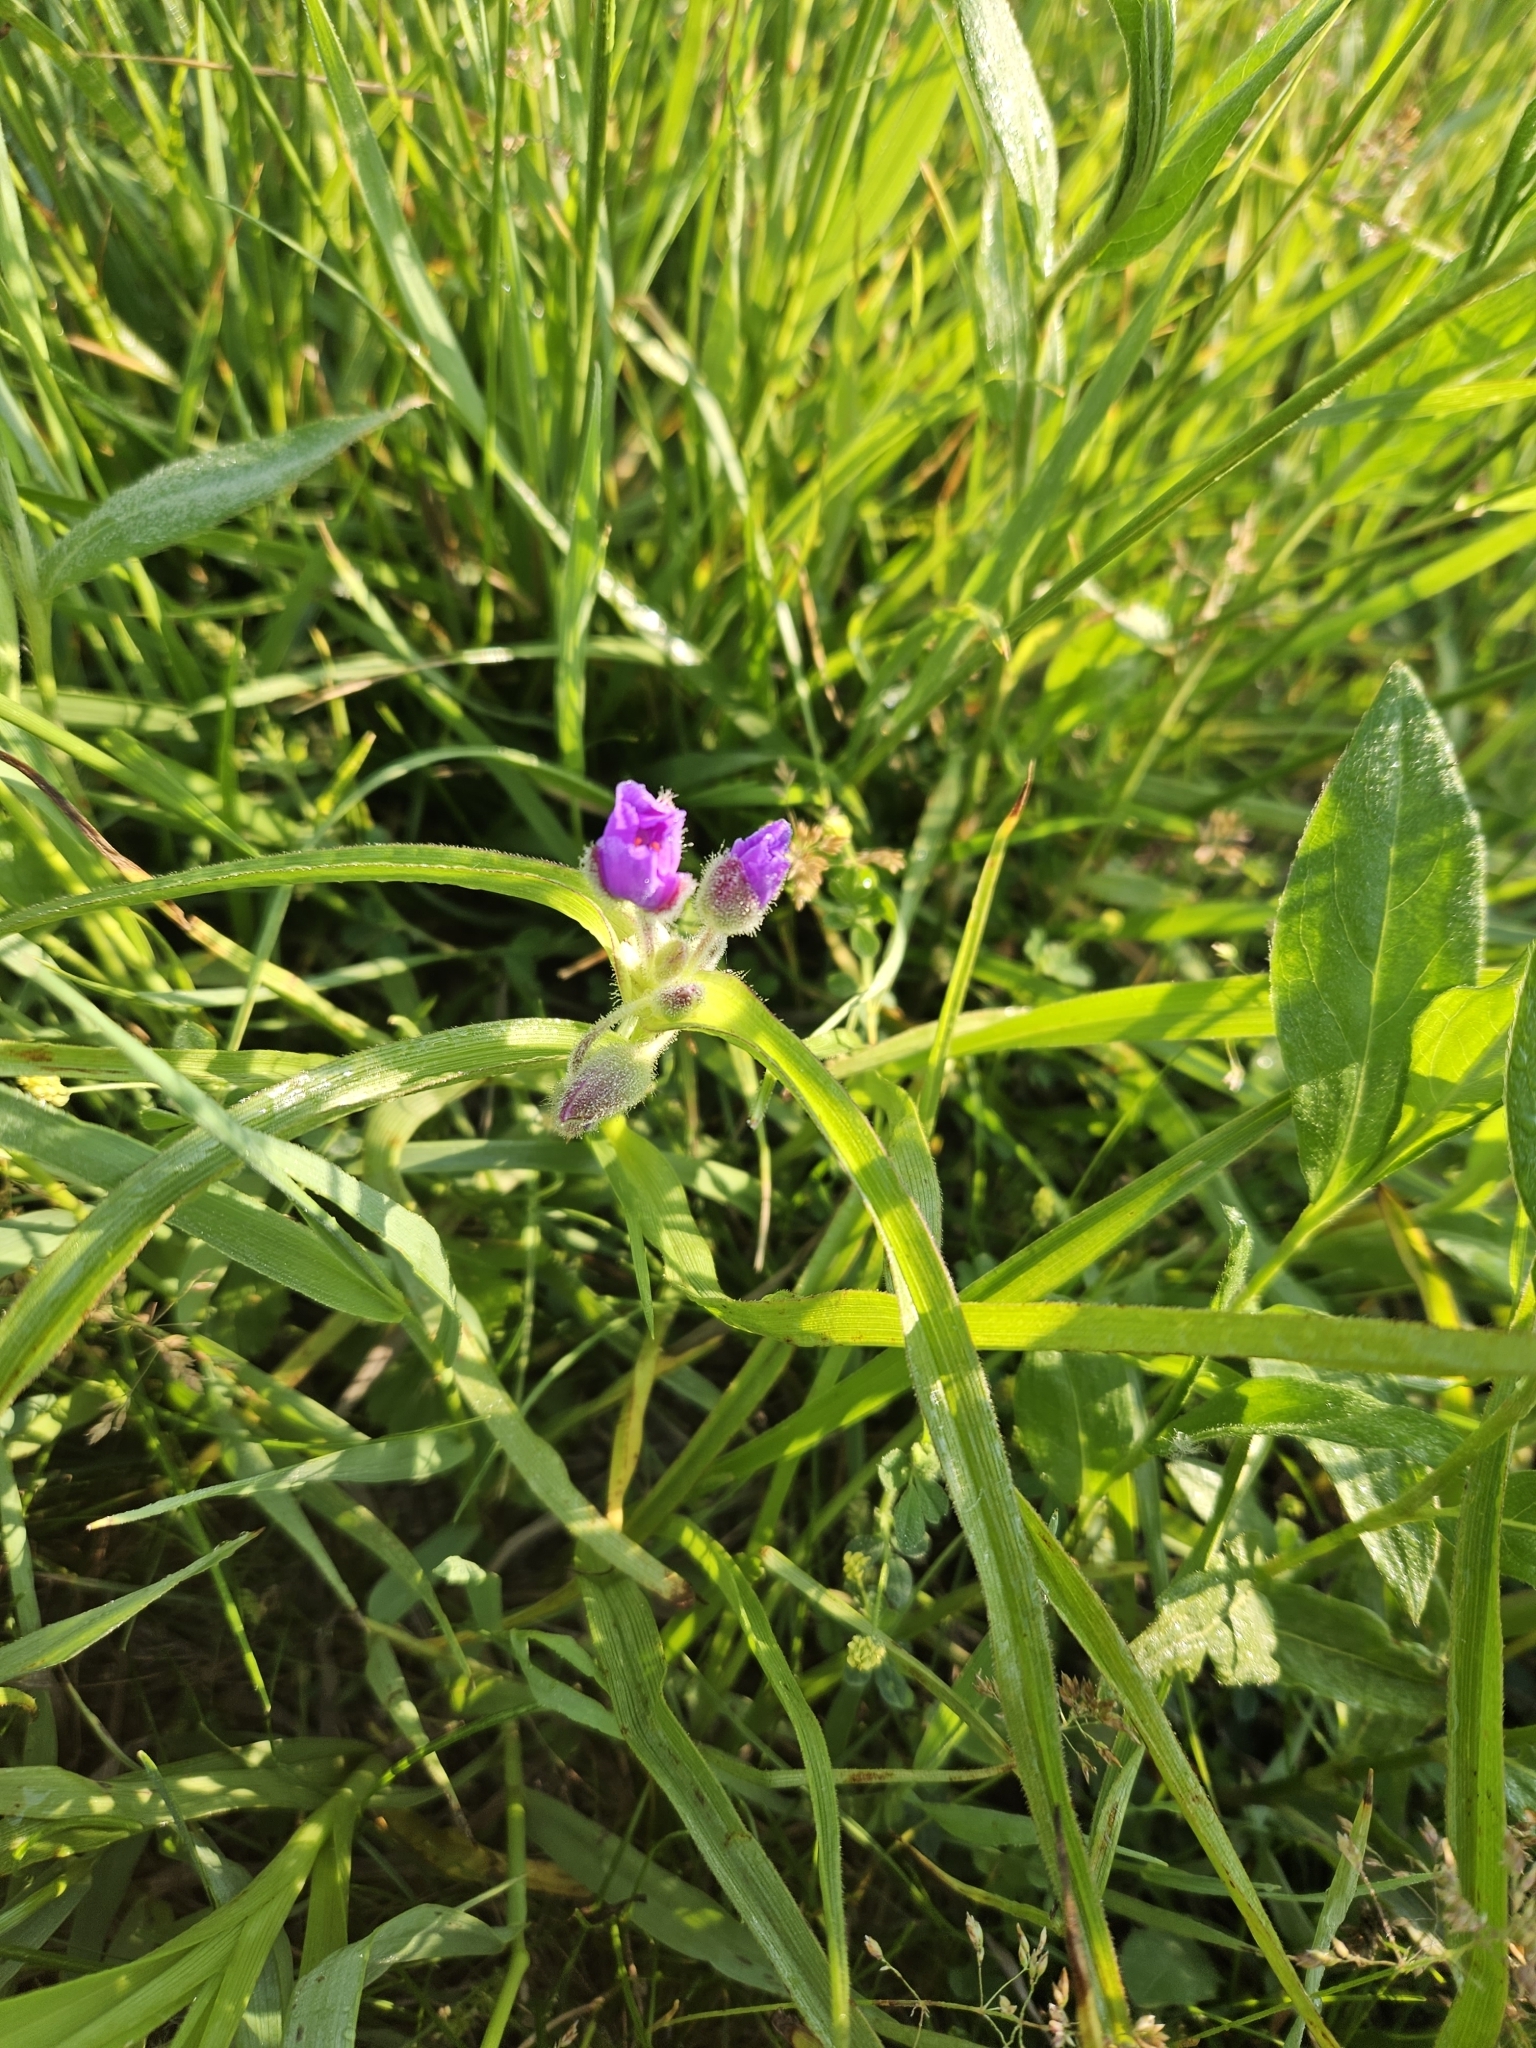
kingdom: Plantae
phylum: Tracheophyta
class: Liliopsida
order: Commelinales
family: Commelinaceae
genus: Tradescantia
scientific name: Tradescantia bracteata
